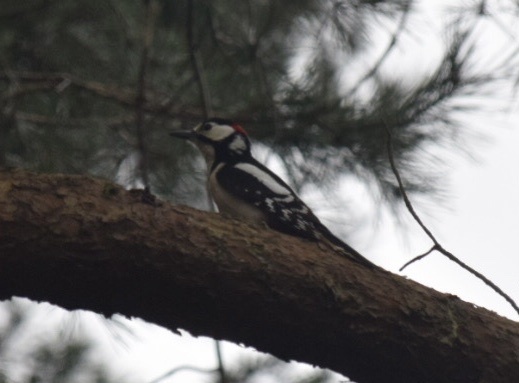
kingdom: Animalia
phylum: Chordata
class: Aves
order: Piciformes
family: Picidae
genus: Dendrocopos
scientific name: Dendrocopos major
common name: Great spotted woodpecker
